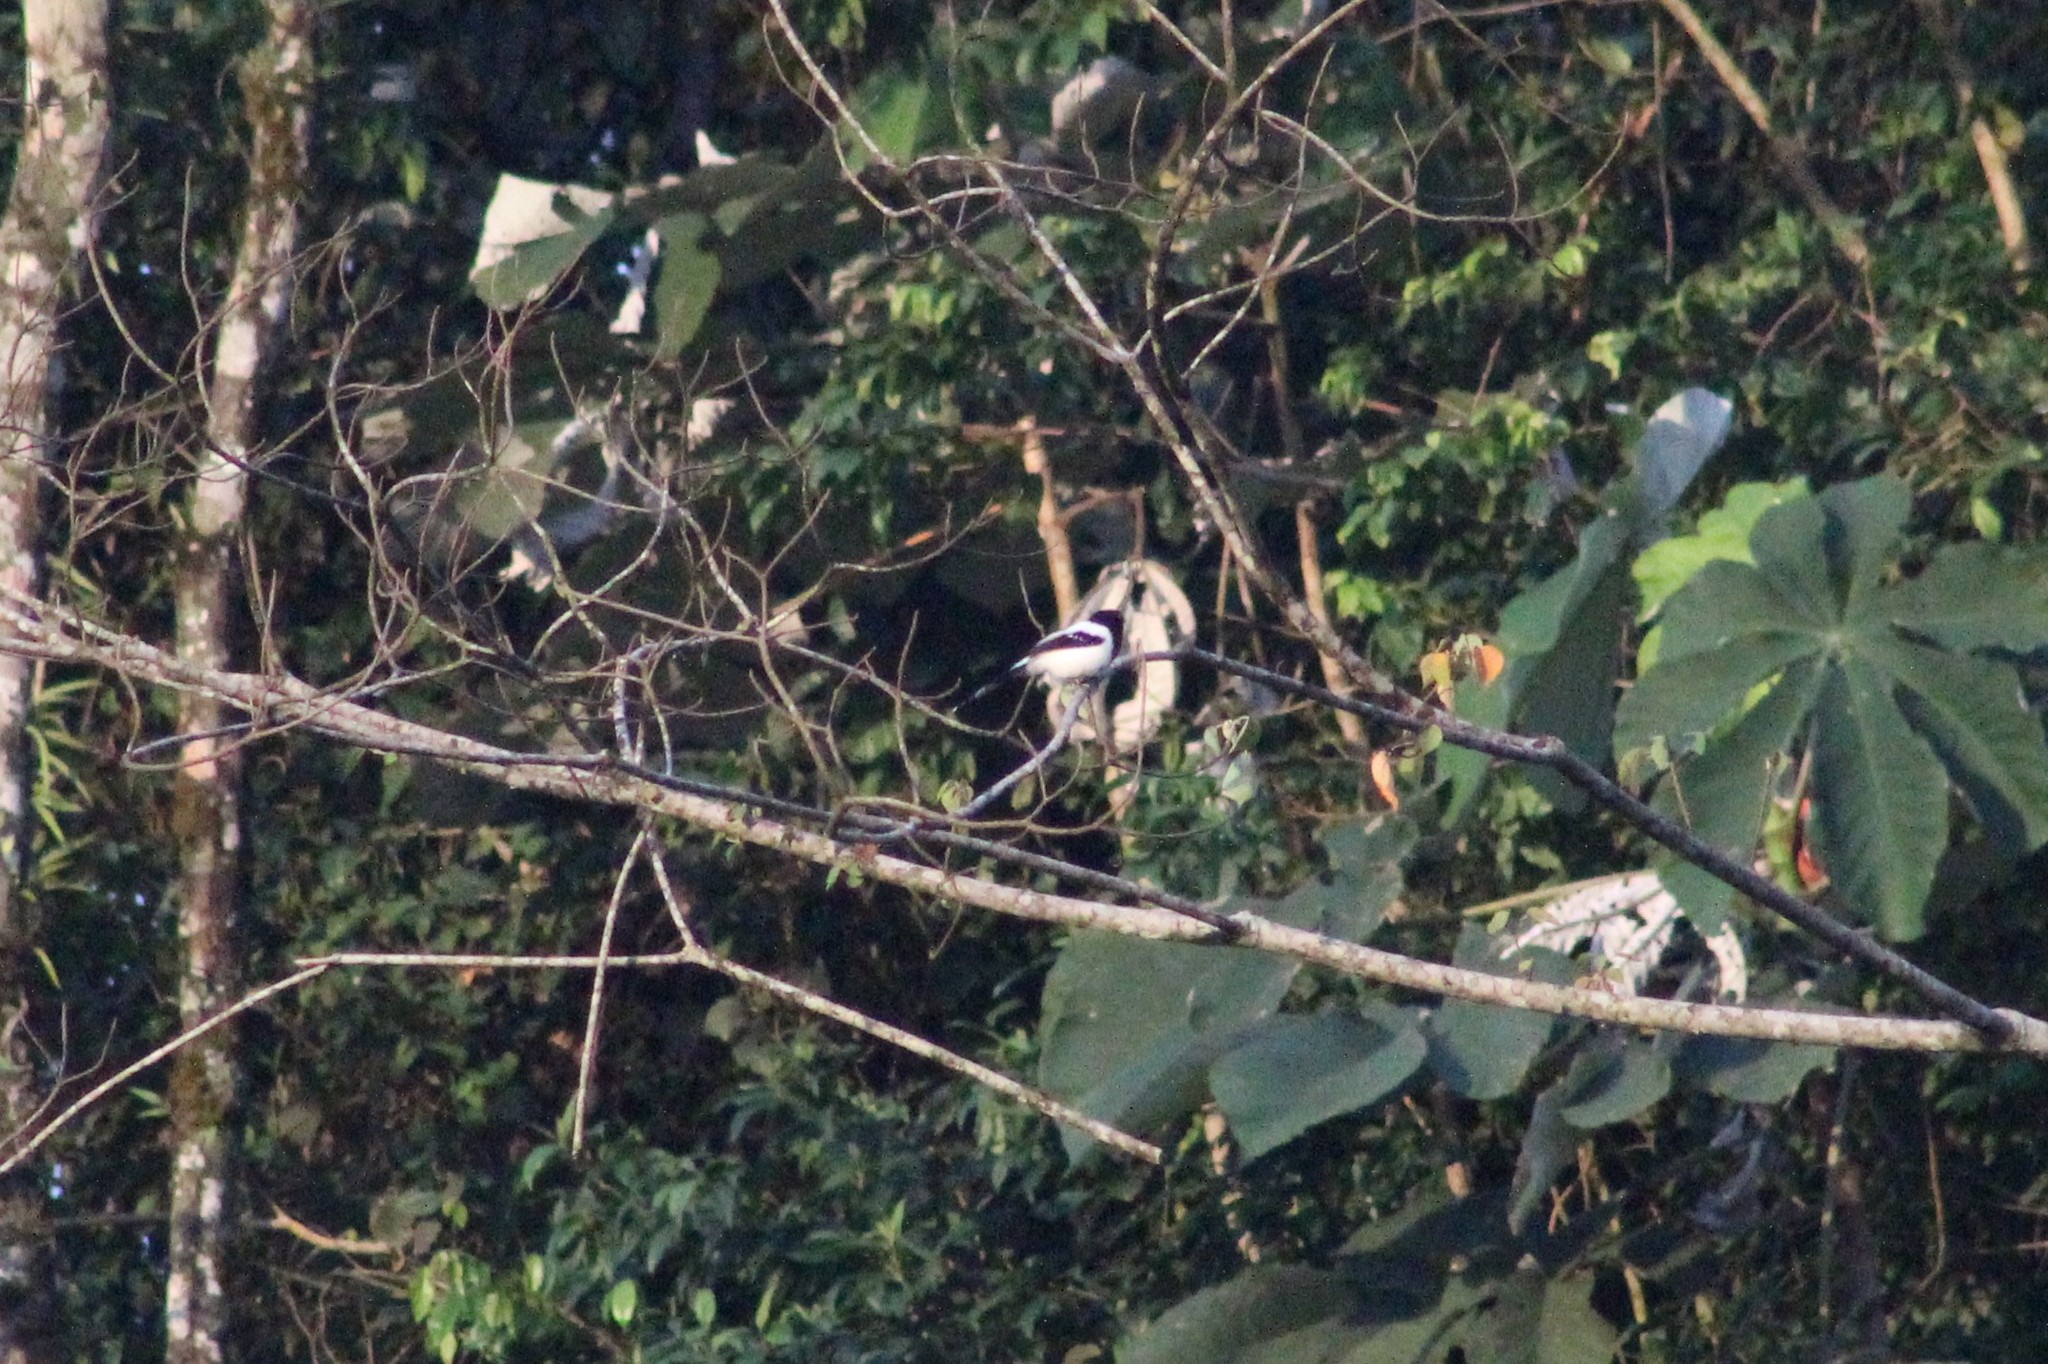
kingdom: Animalia
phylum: Chordata
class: Aves
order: Passeriformes
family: Thraupidae
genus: Cissopis
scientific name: Cissopis leverianus
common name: Magpie tanager
